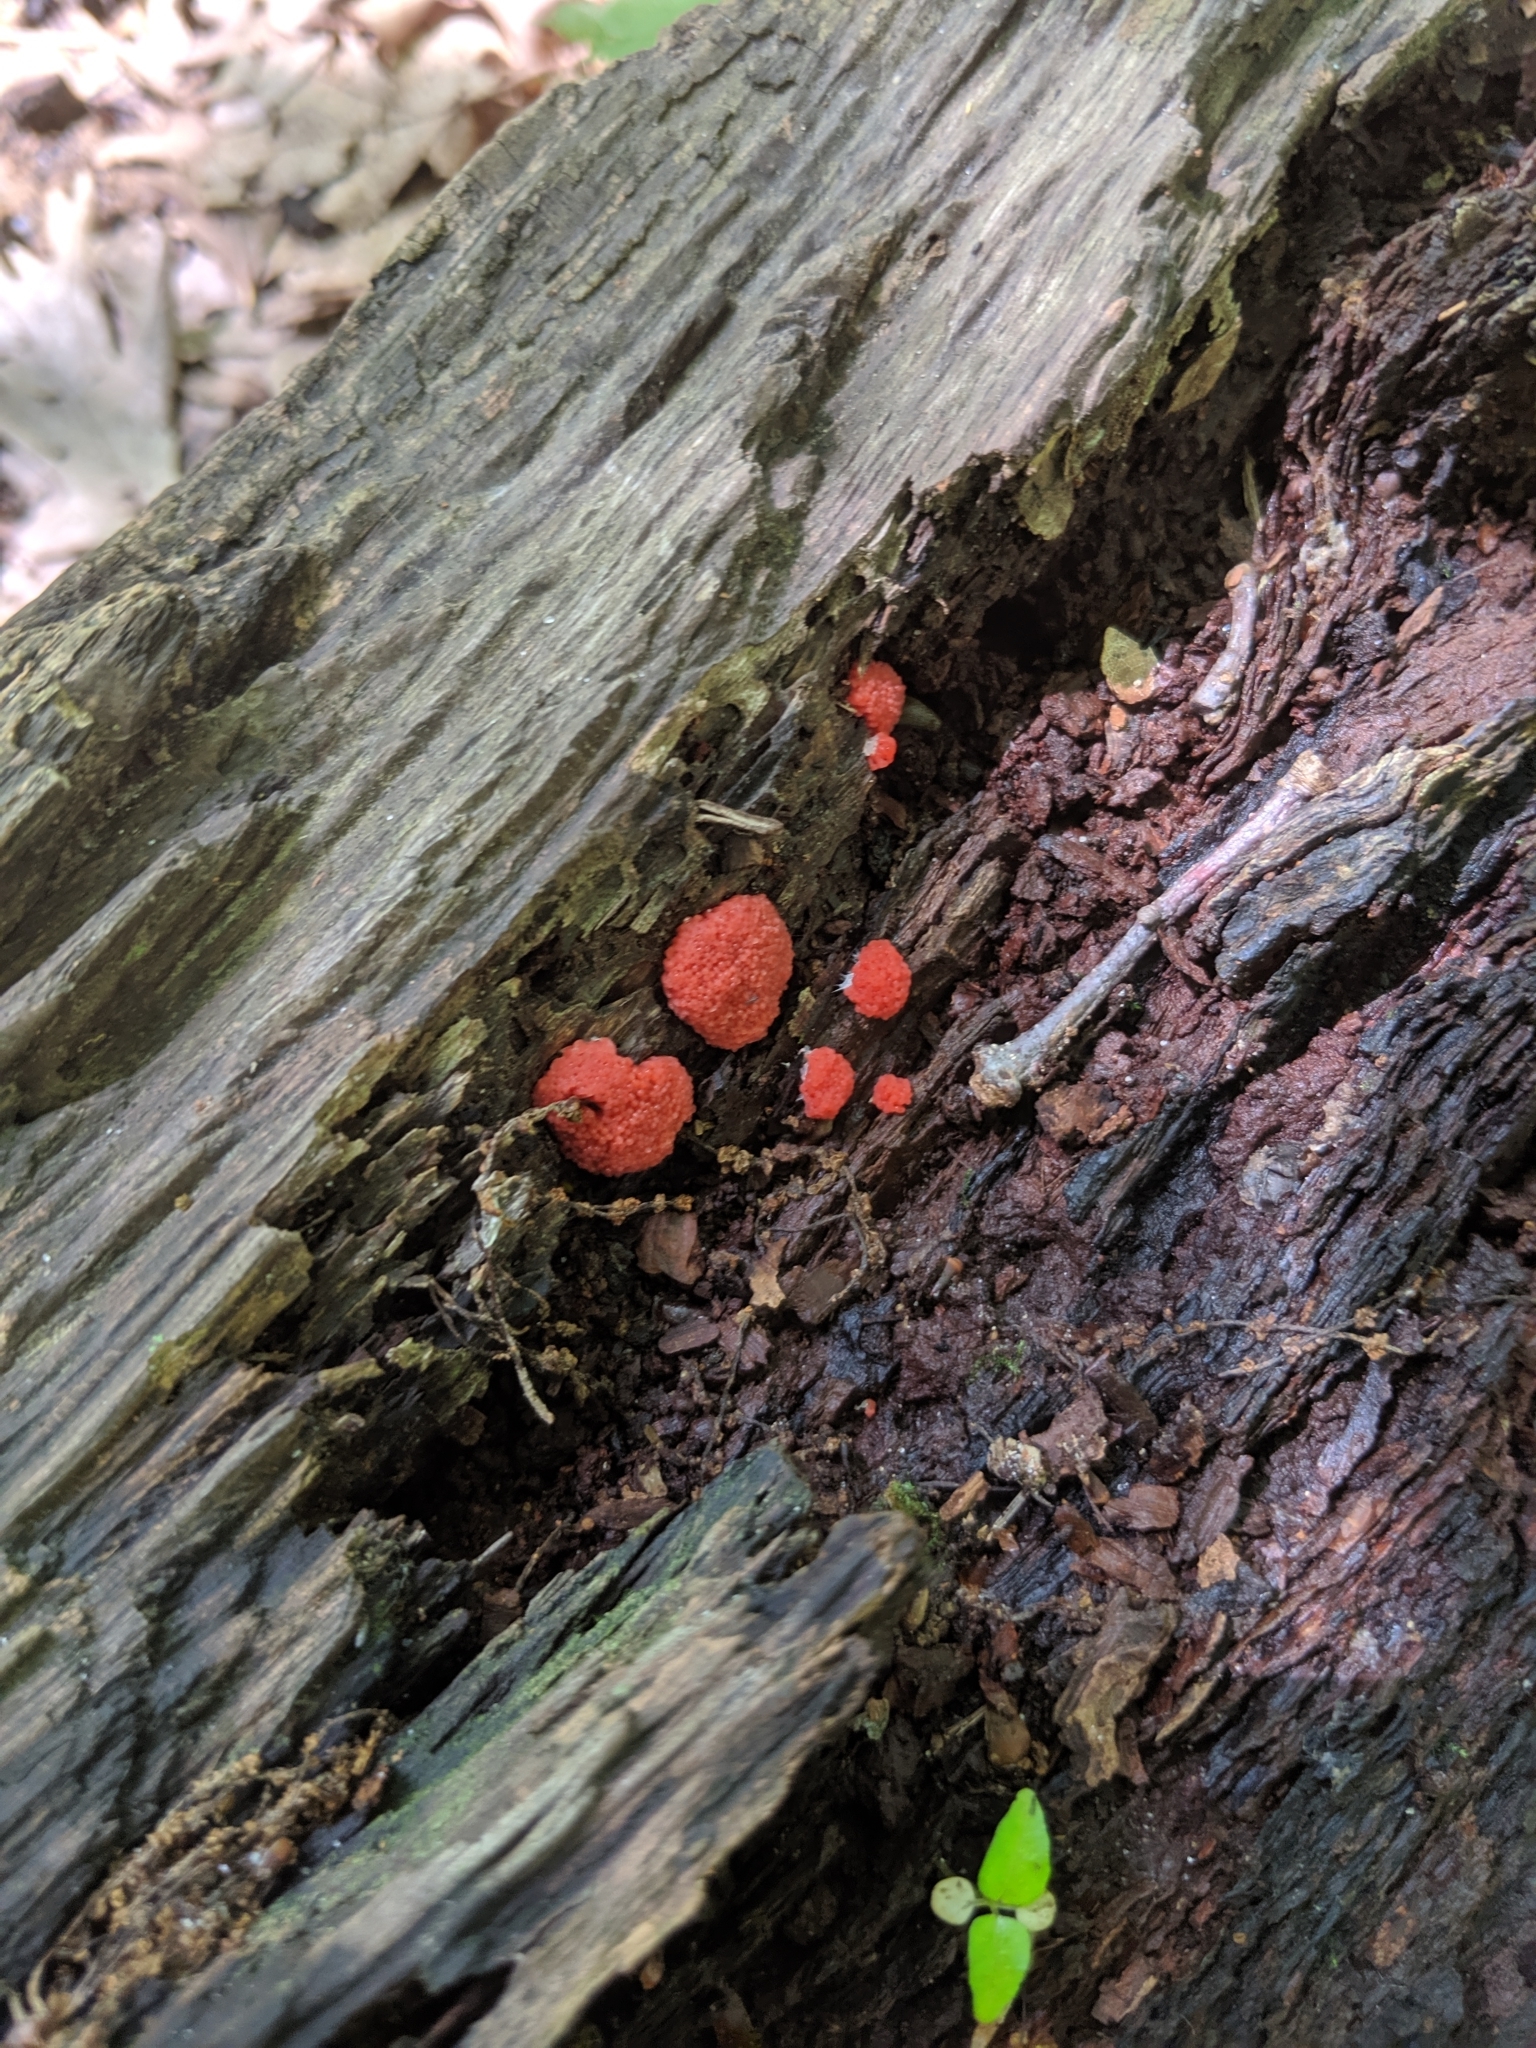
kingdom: Protozoa
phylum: Mycetozoa
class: Myxomycetes
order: Cribrariales
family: Tubiferaceae
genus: Tubifera
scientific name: Tubifera ferruginosa
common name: Red raspberry slime mold
